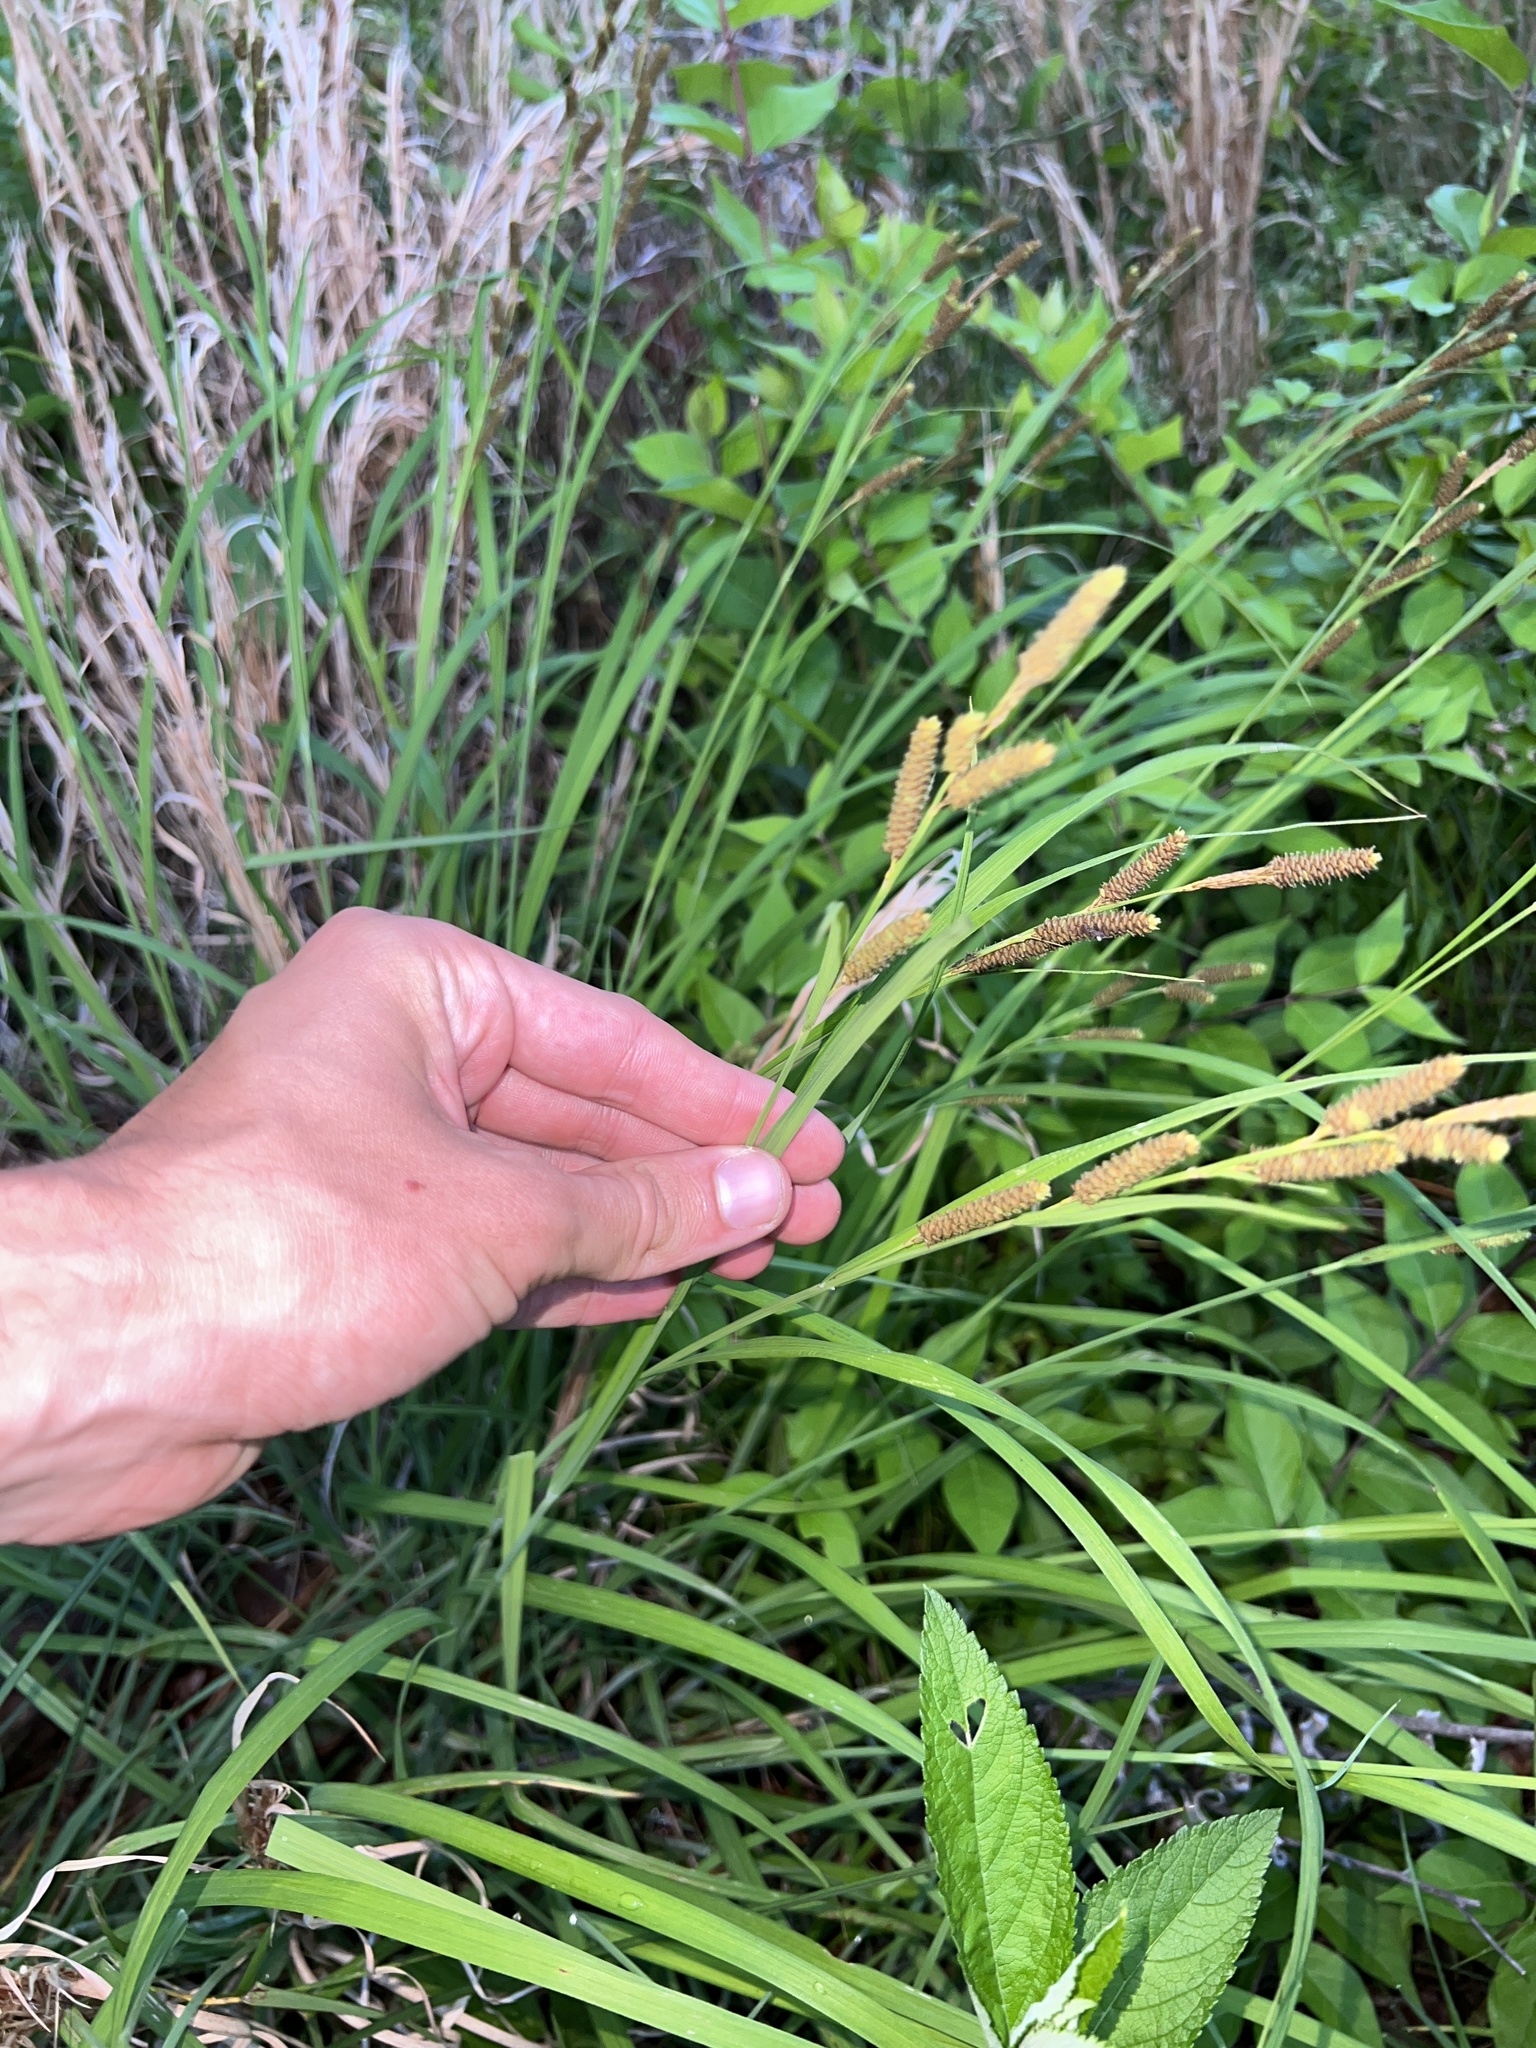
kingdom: Plantae
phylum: Tracheophyta
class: Liliopsida
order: Poales
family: Cyperaceae
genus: Carex
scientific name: Carex shortiana
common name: Short's sedge
